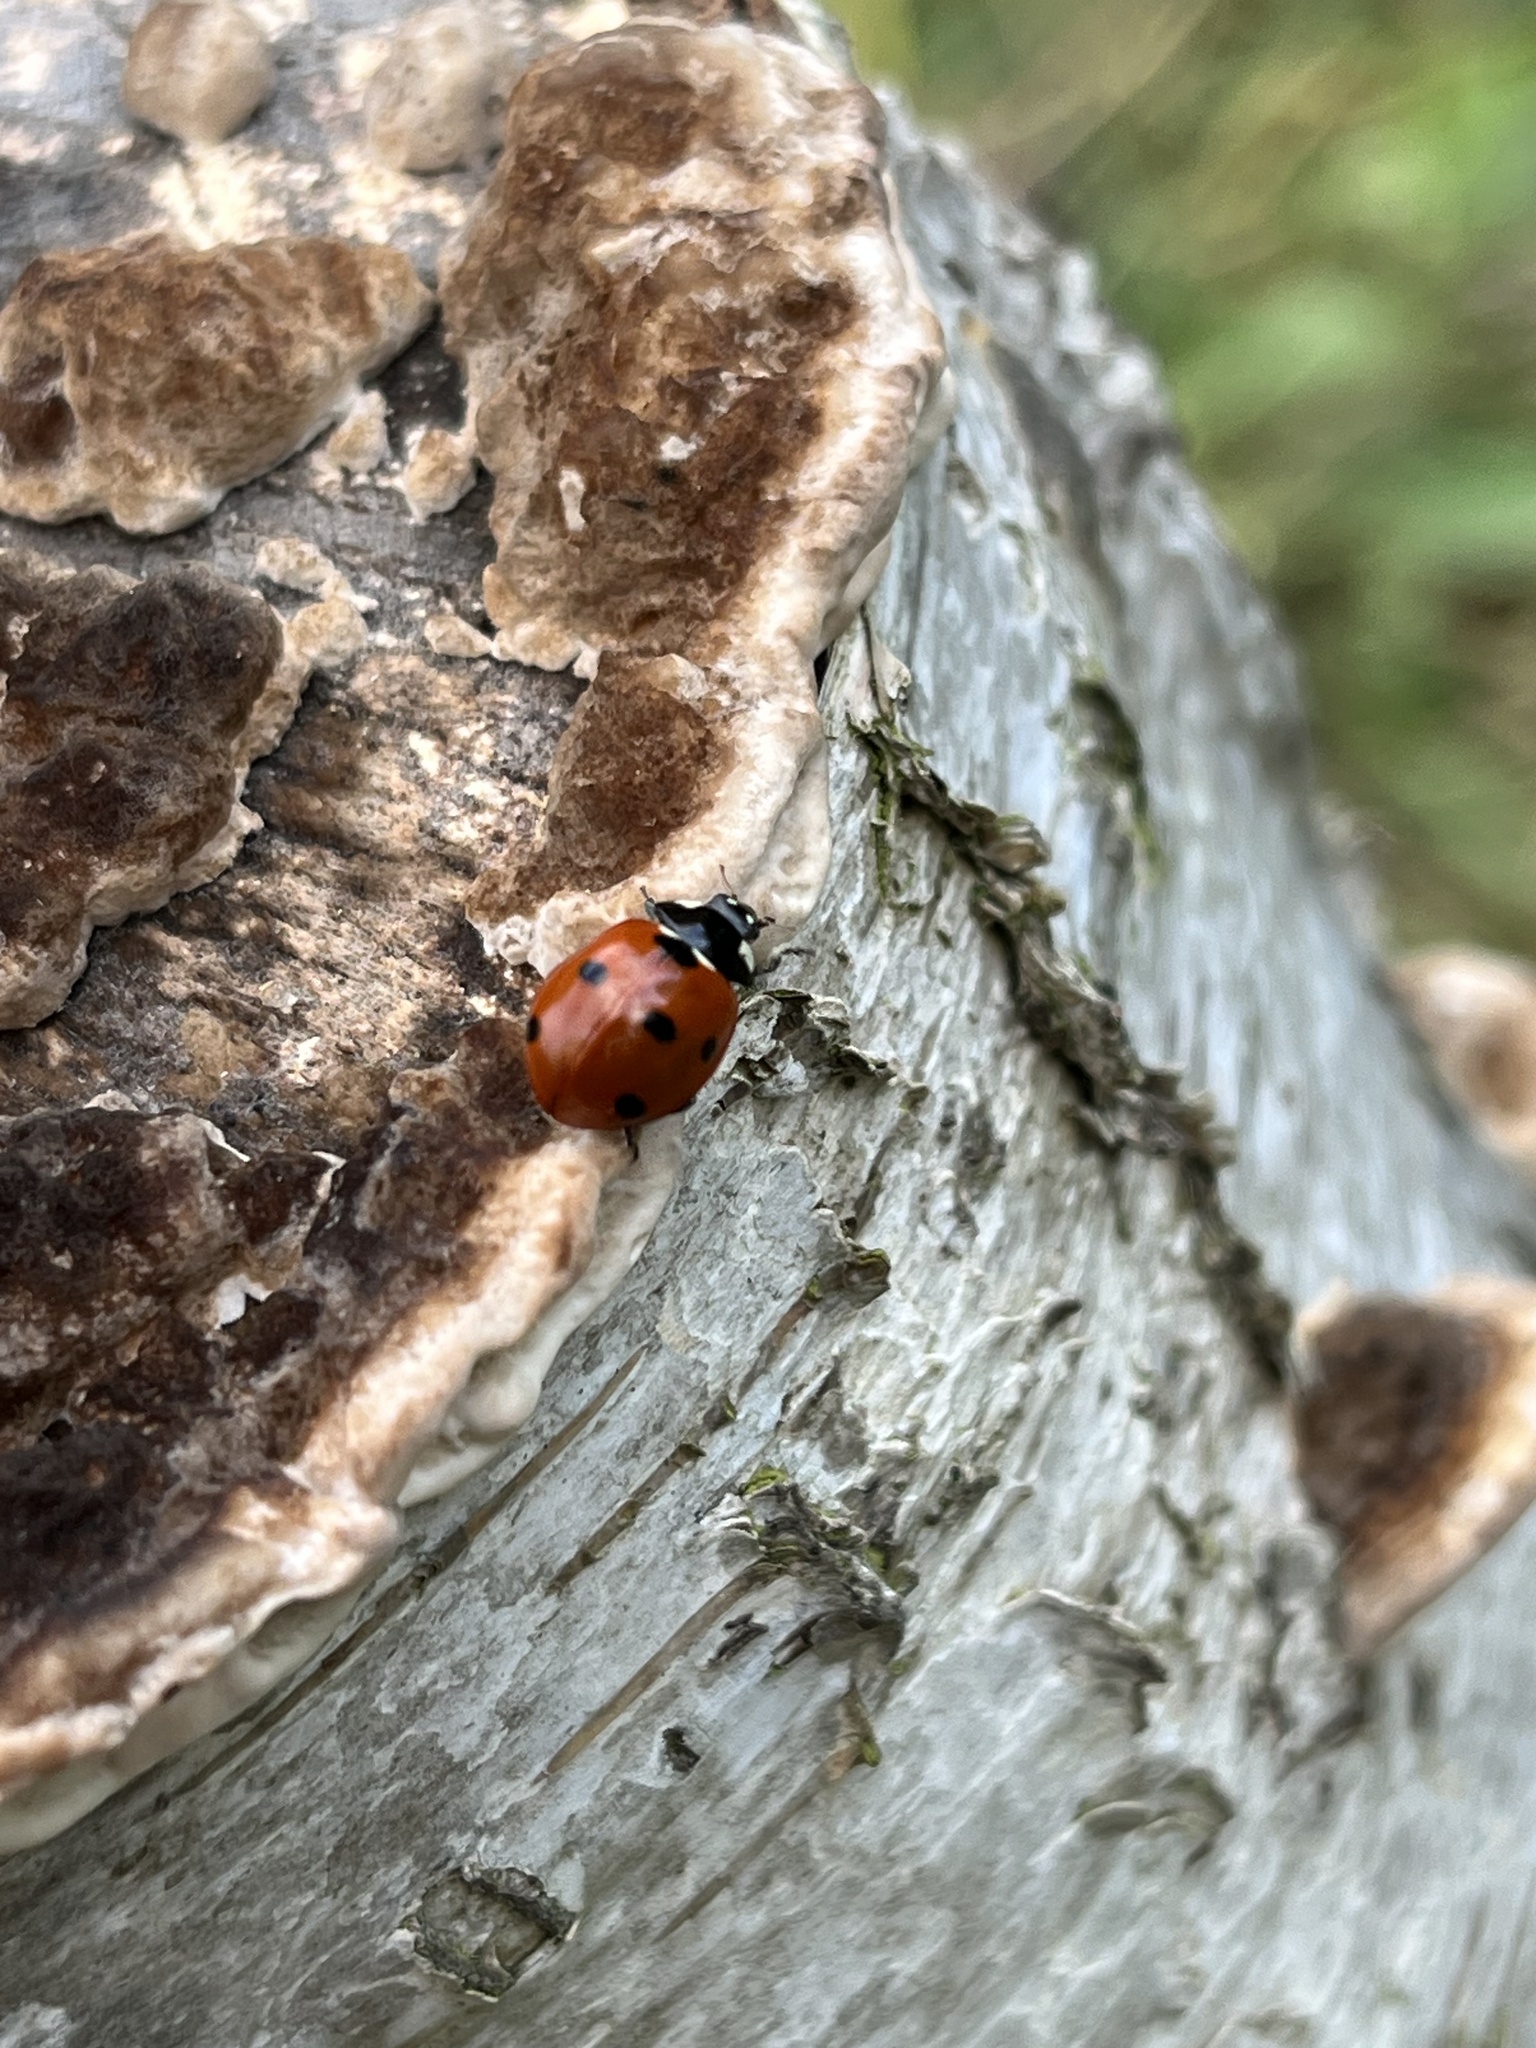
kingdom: Animalia
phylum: Arthropoda
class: Insecta
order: Coleoptera
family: Coccinellidae
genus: Coccinella
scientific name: Coccinella septempunctata
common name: Sevenspotted lady beetle
